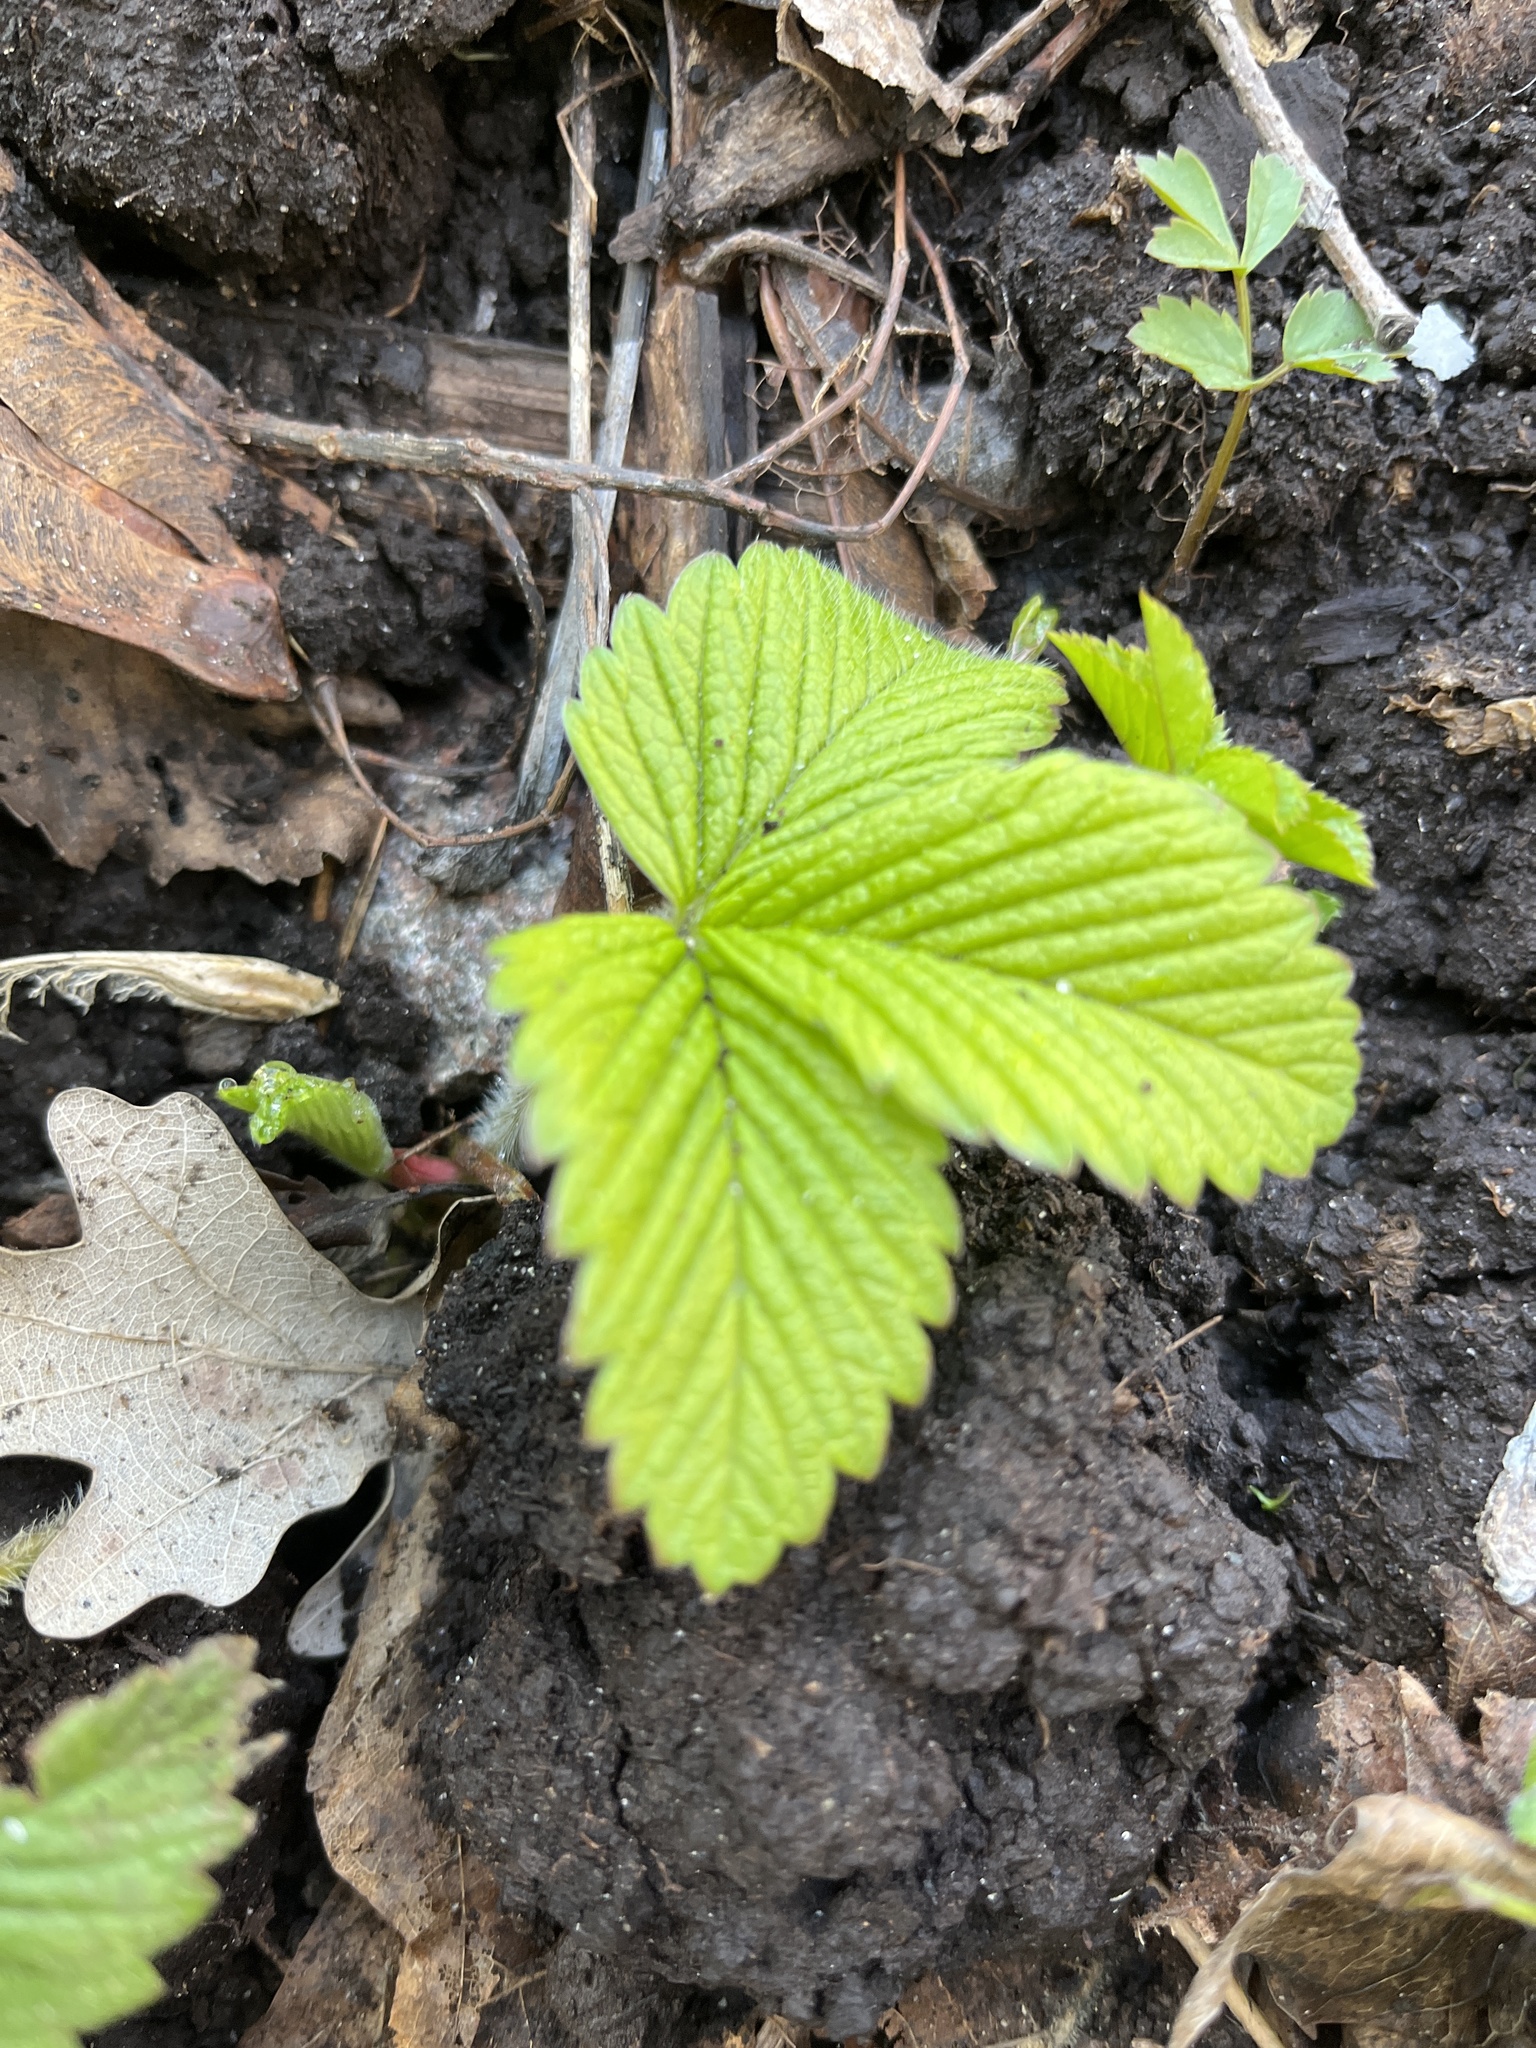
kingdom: Plantae
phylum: Tracheophyta
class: Magnoliopsida
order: Rosales
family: Rosaceae
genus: Fragaria
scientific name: Fragaria moschata
